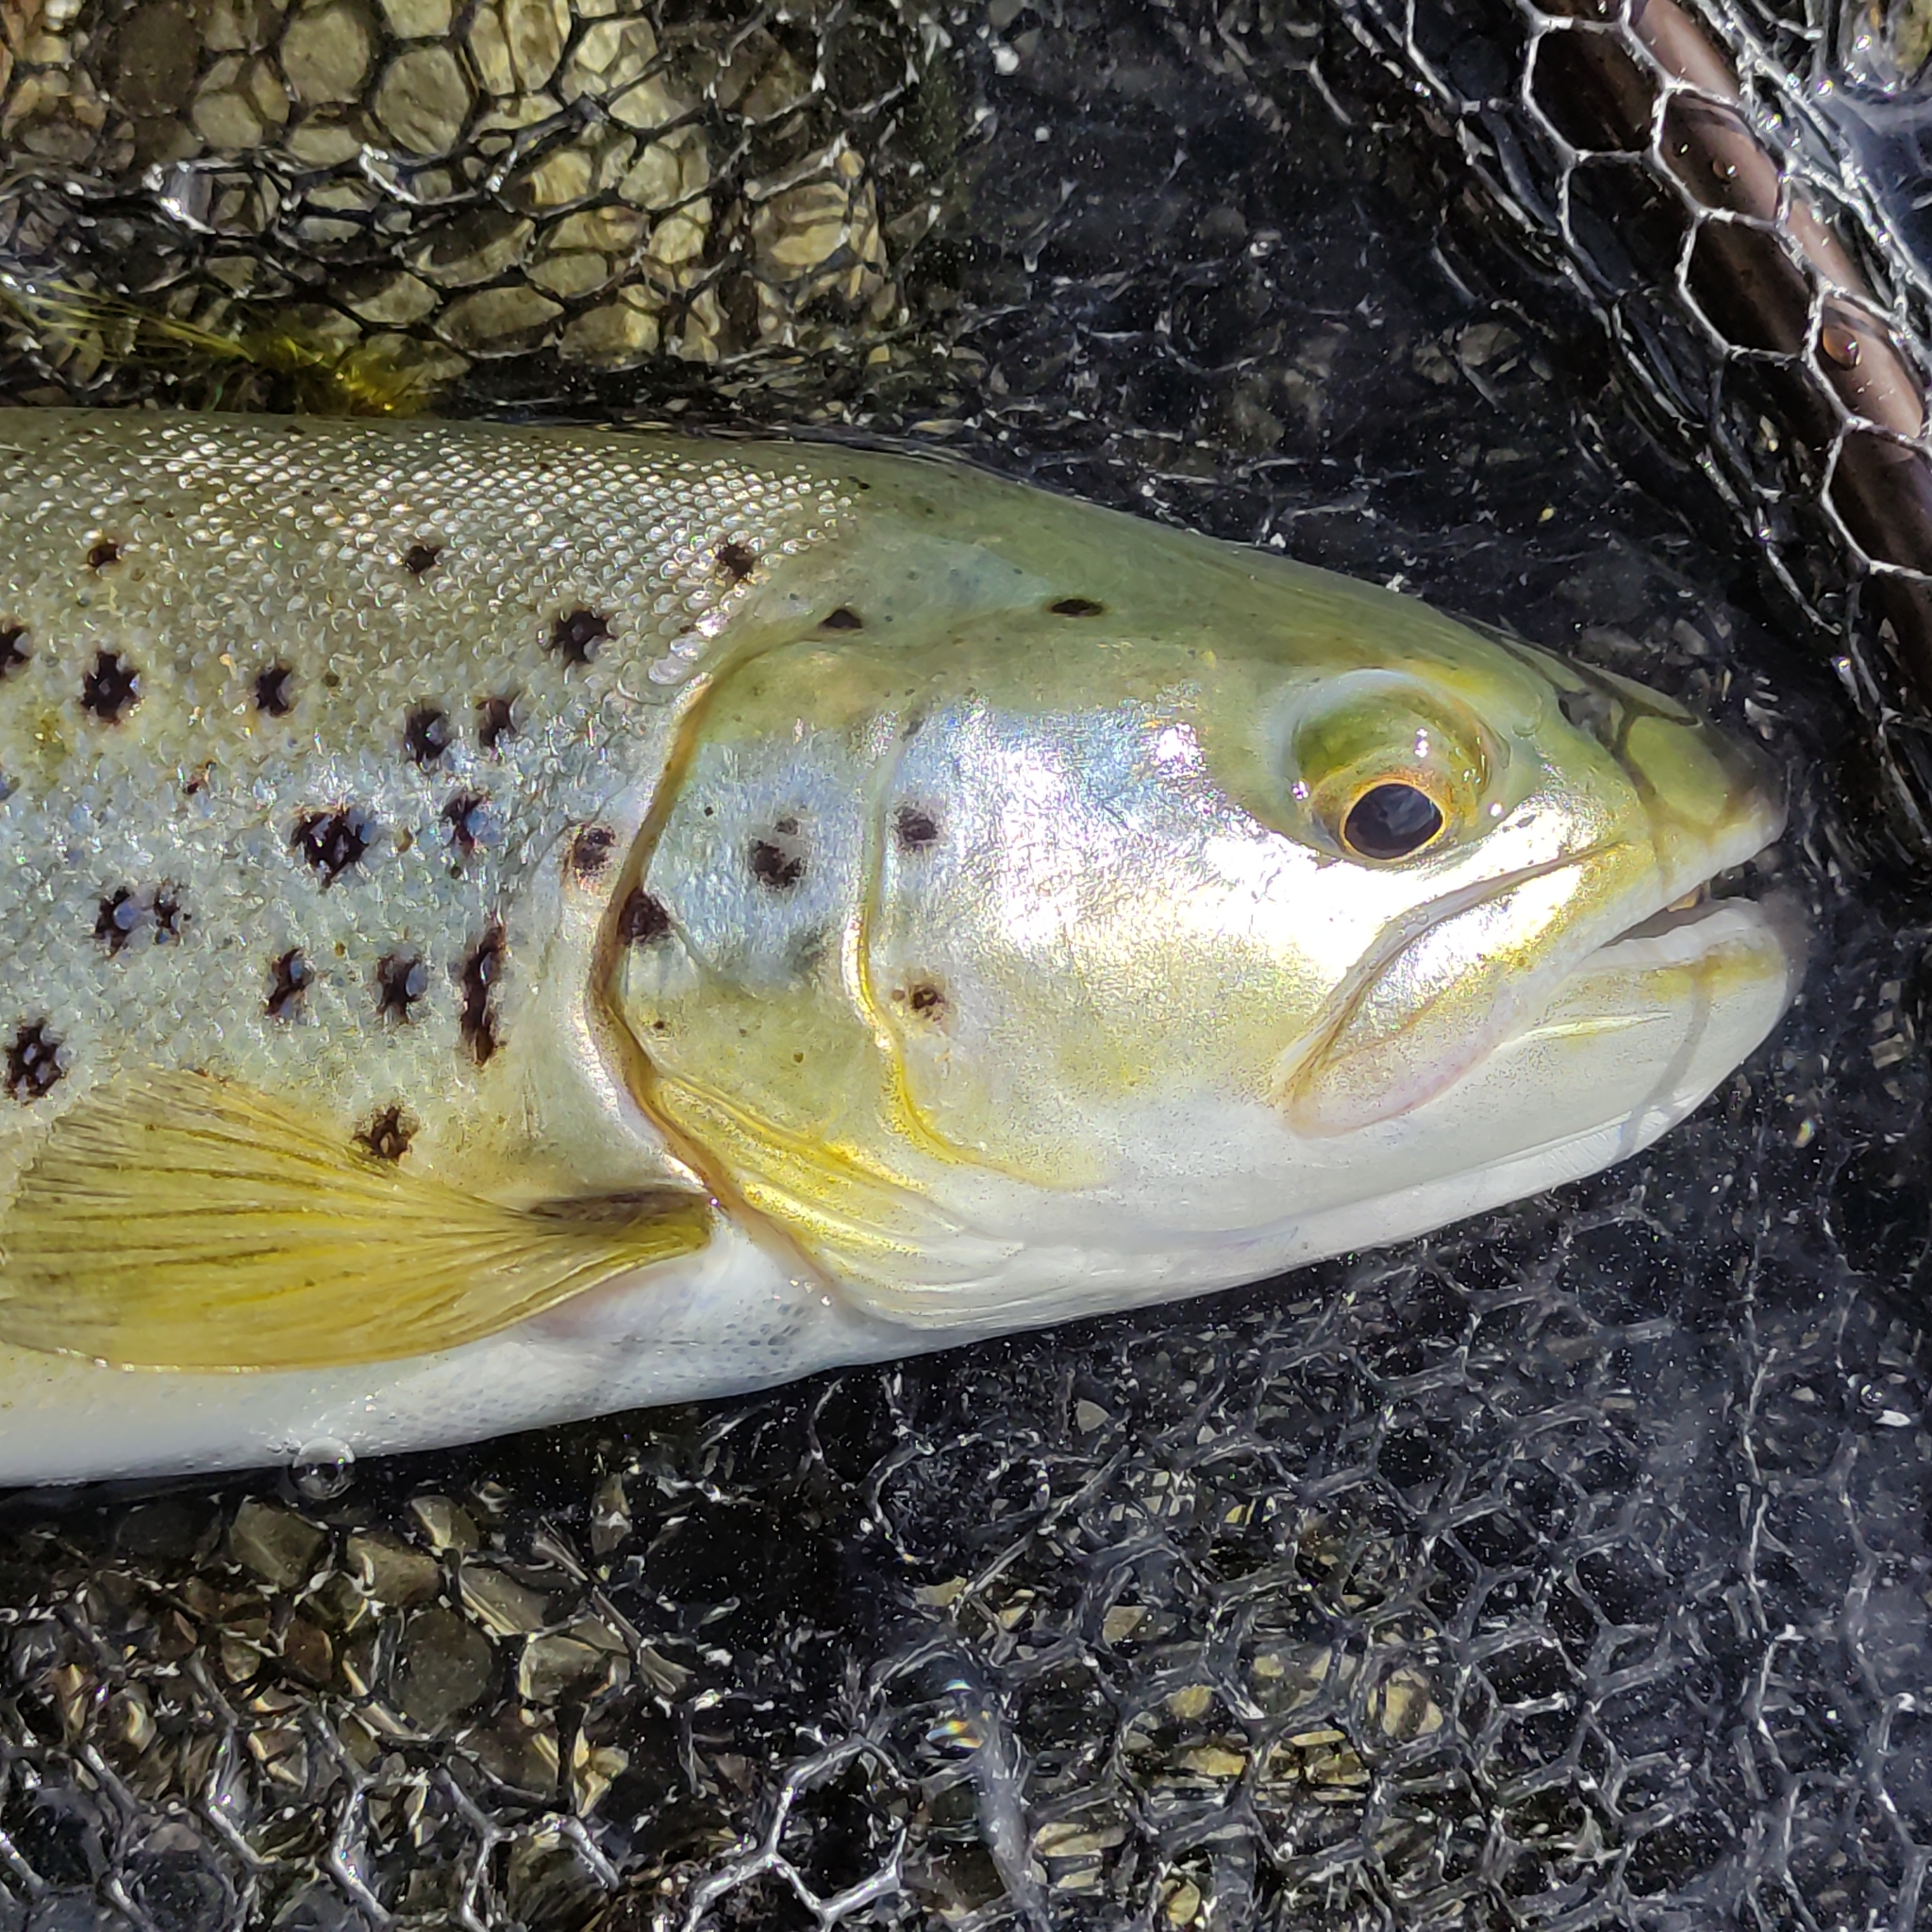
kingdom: Animalia
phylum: Chordata
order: Salmoniformes
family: Salmonidae
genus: Salmo
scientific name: Salmo trutta
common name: Brown trout
